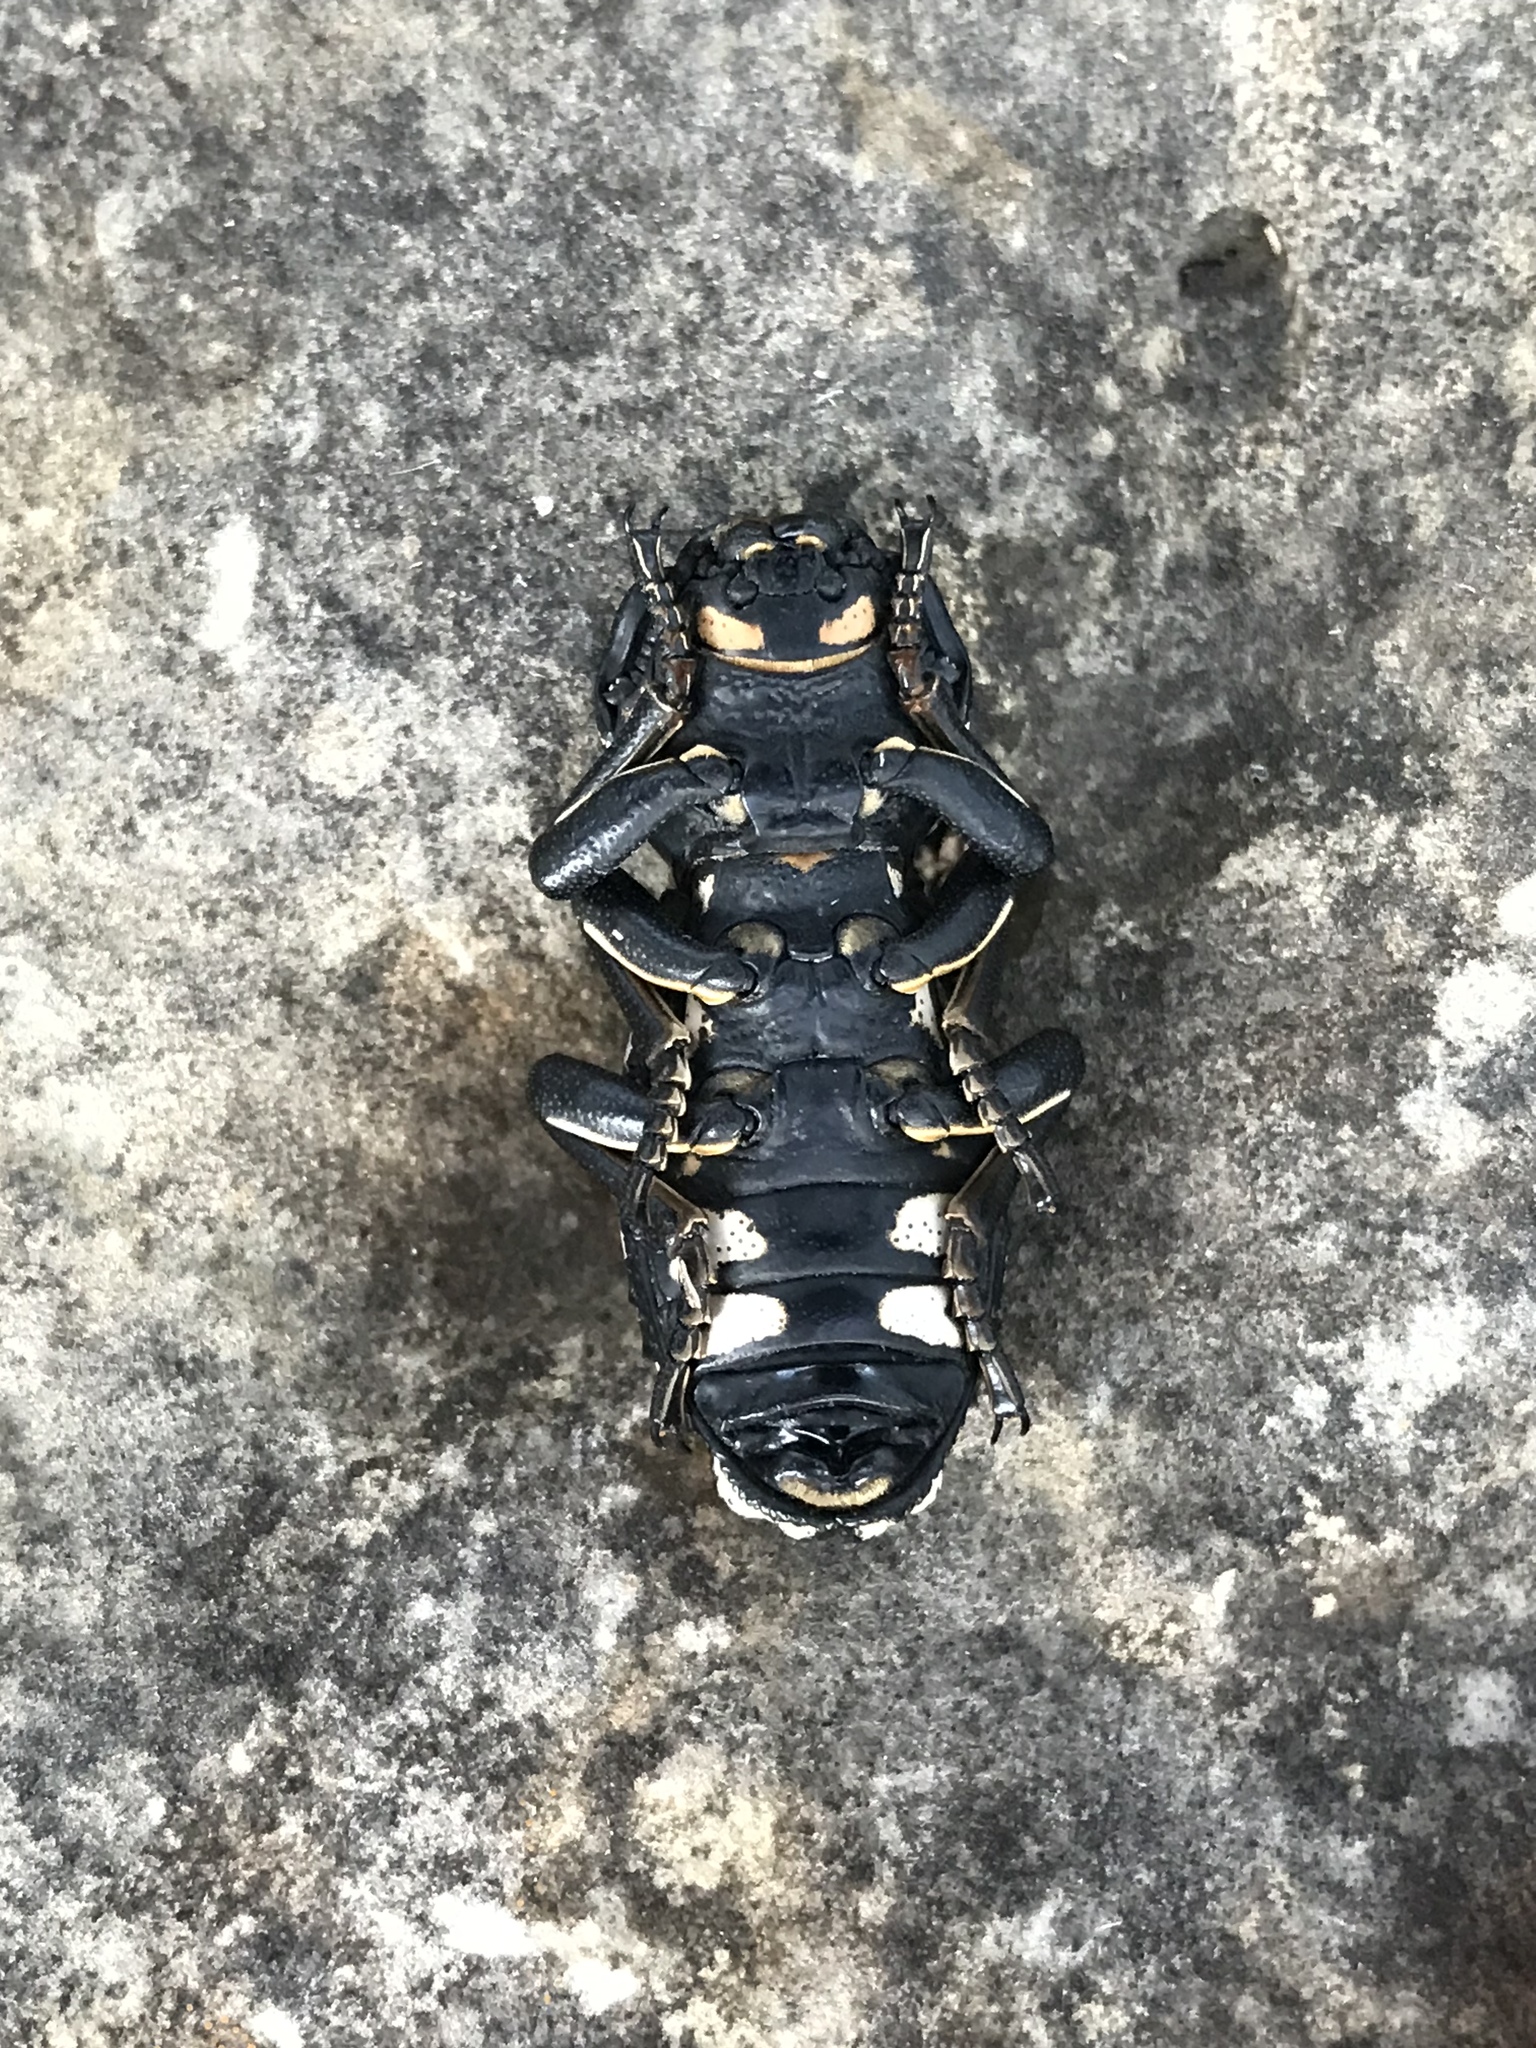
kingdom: Animalia
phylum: Arthropoda
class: Insecta
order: Coleoptera
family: Zopheridae
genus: Zopherus
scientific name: Zopherus nodulosus
